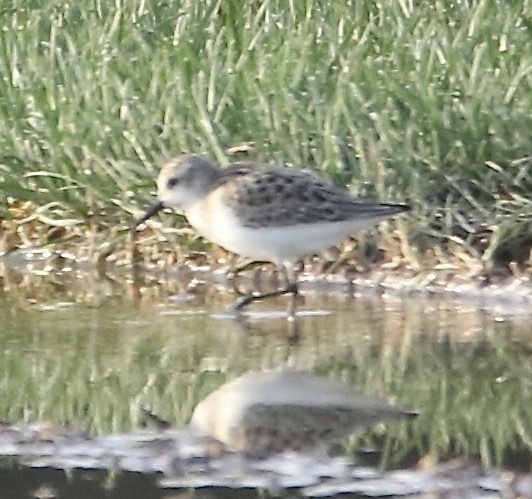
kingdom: Animalia
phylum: Chordata
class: Aves
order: Charadriiformes
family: Scolopacidae
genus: Calidris
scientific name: Calidris pusilla
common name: Semipalmated sandpiper
